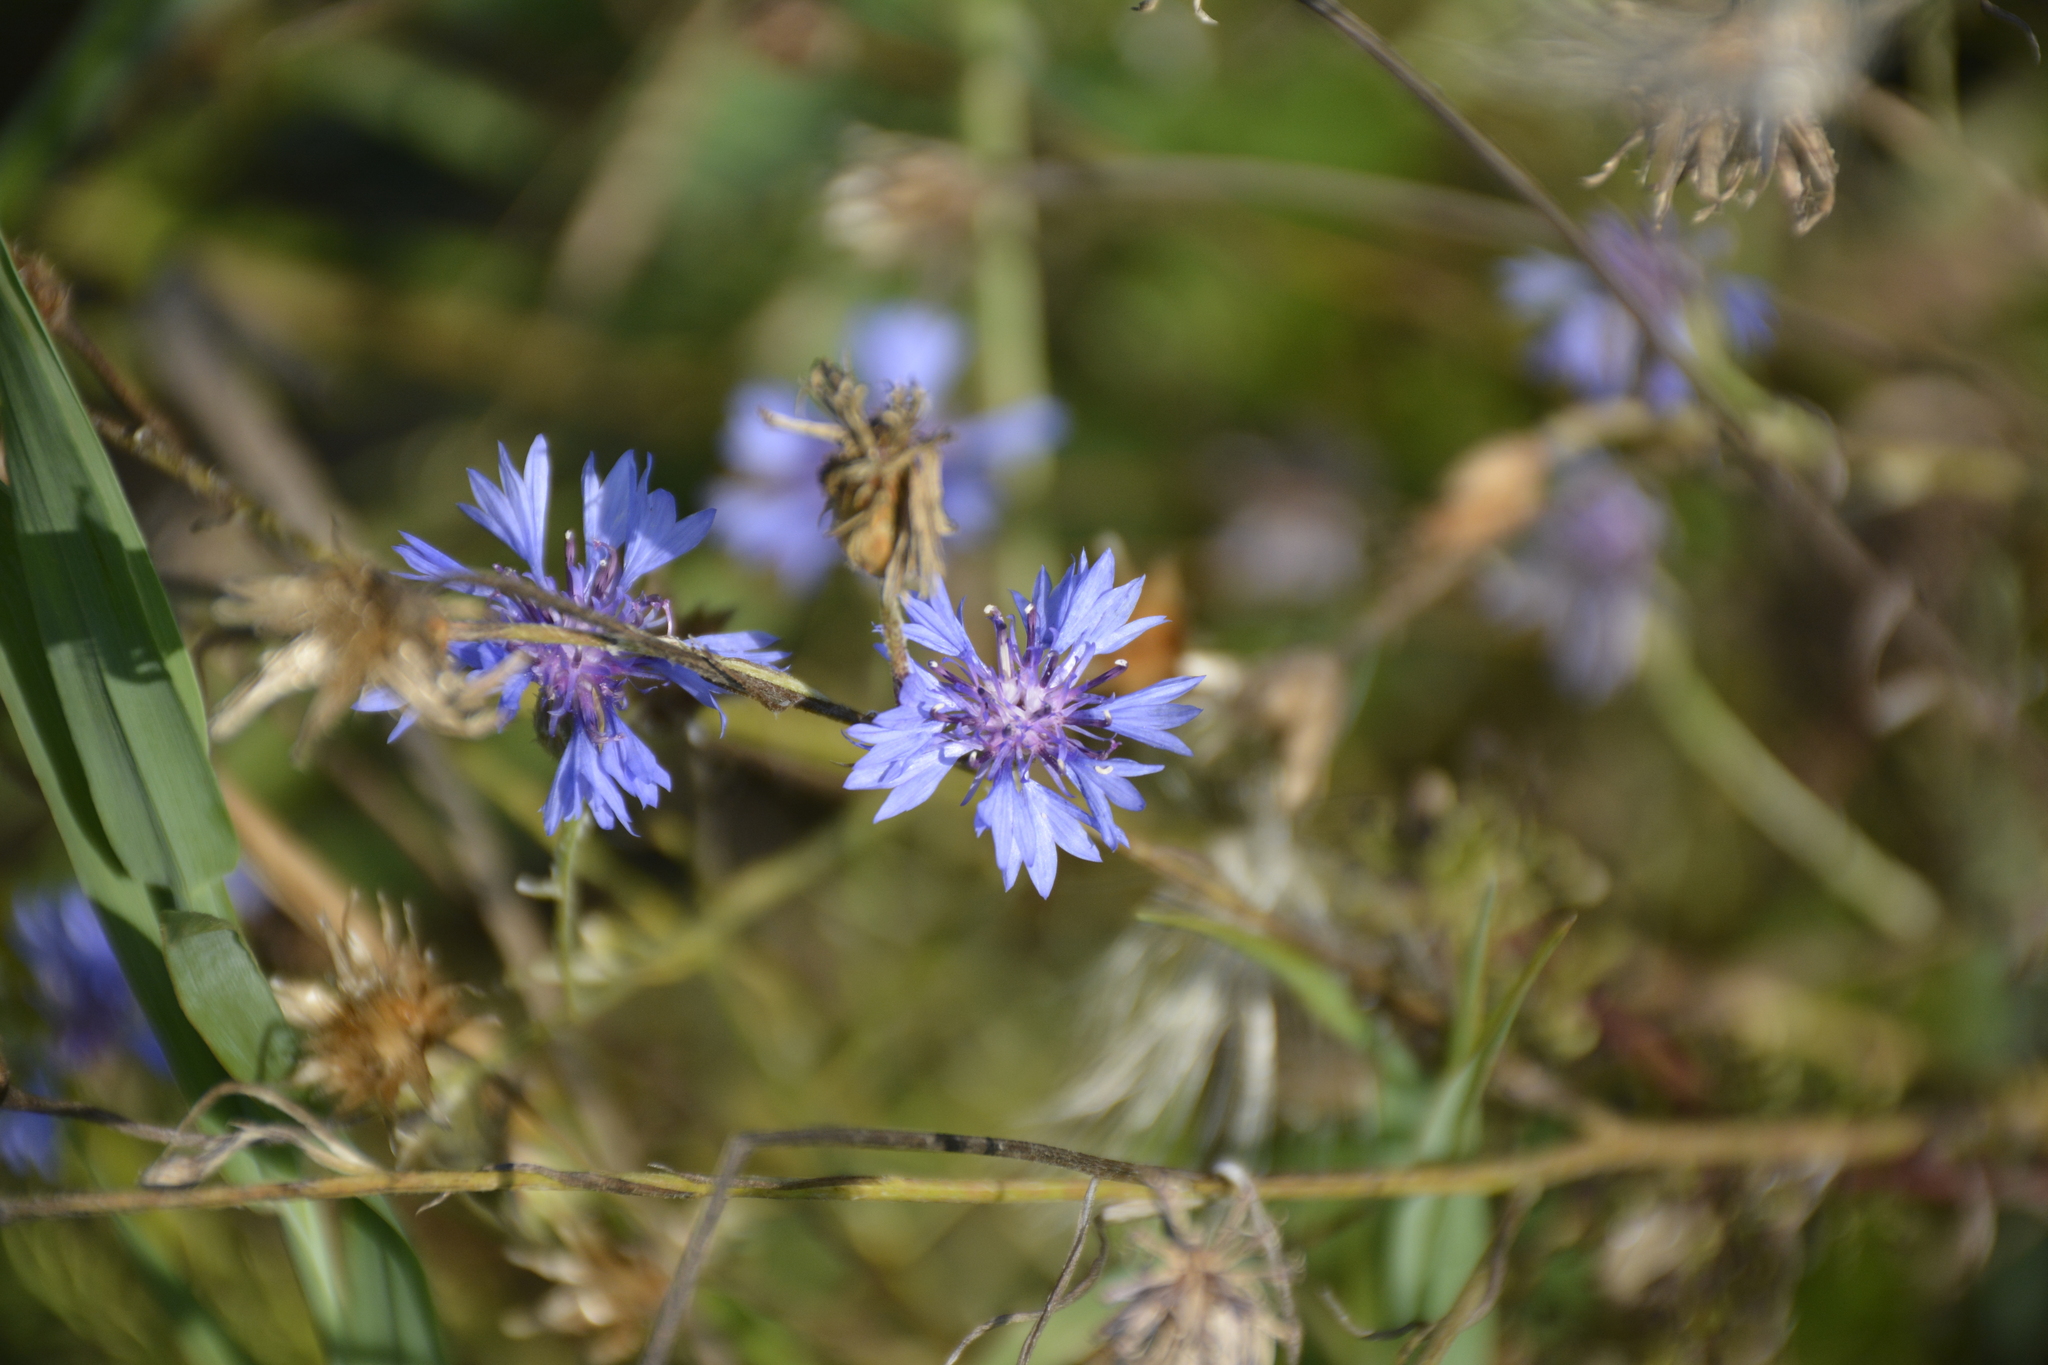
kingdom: Plantae
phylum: Tracheophyta
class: Magnoliopsida
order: Asterales
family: Asteraceae
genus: Centaurea
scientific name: Centaurea cyanus
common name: Cornflower
